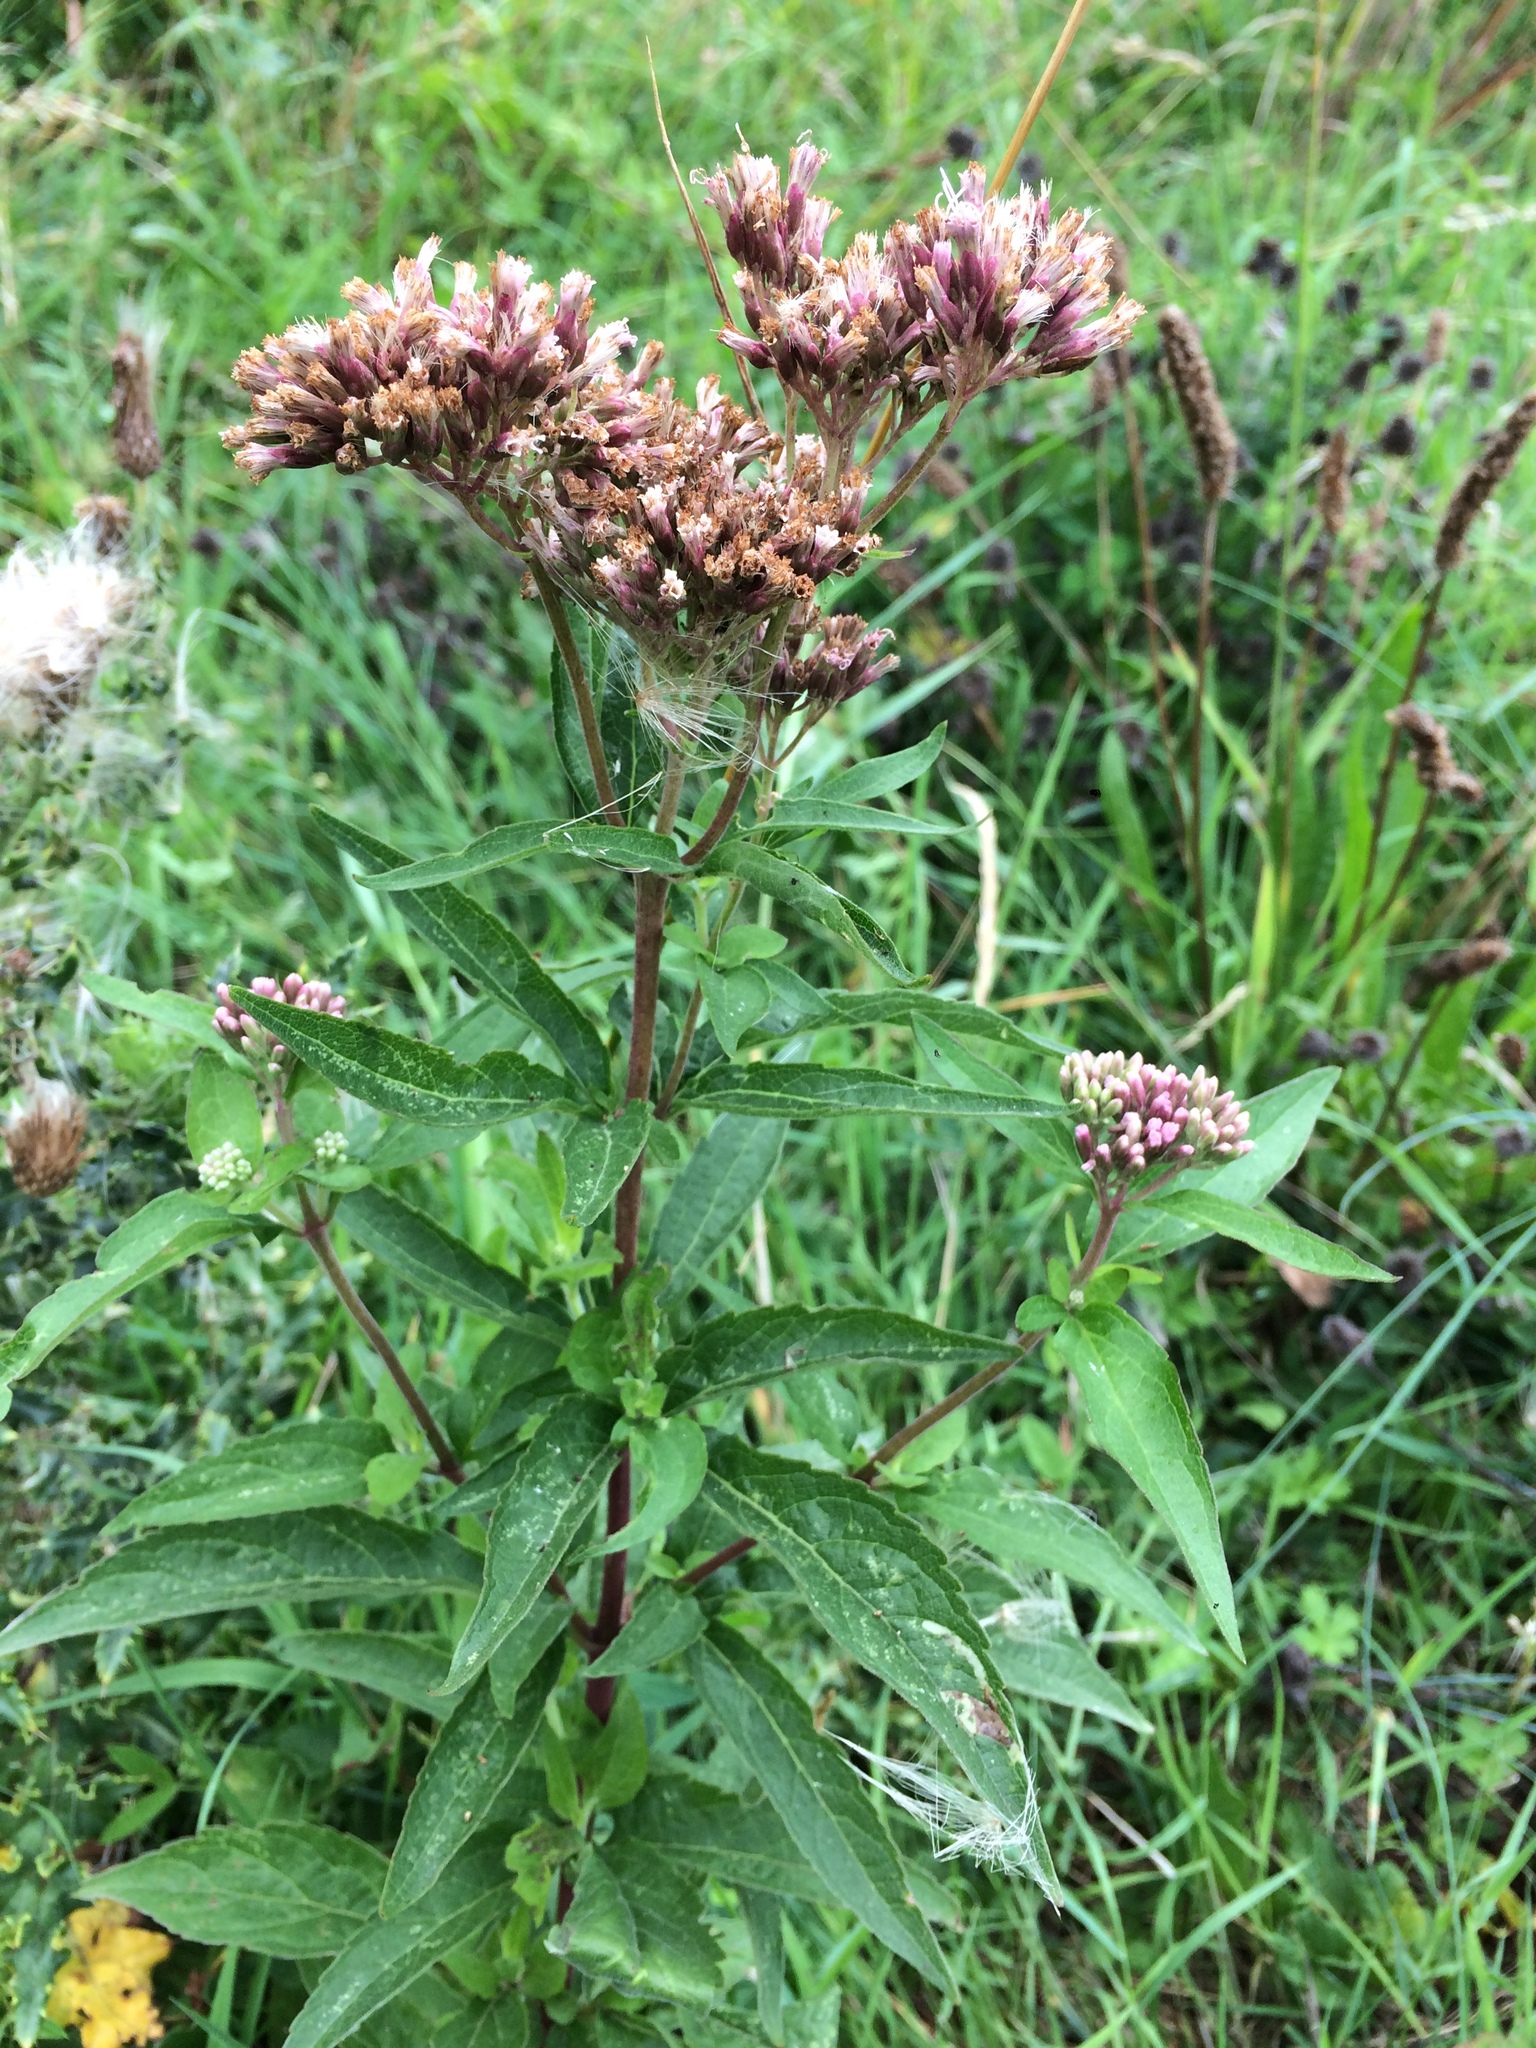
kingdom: Plantae
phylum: Tracheophyta
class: Magnoliopsida
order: Asterales
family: Asteraceae
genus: Eupatorium
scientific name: Eupatorium cannabinum
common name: Hemp-agrimony
